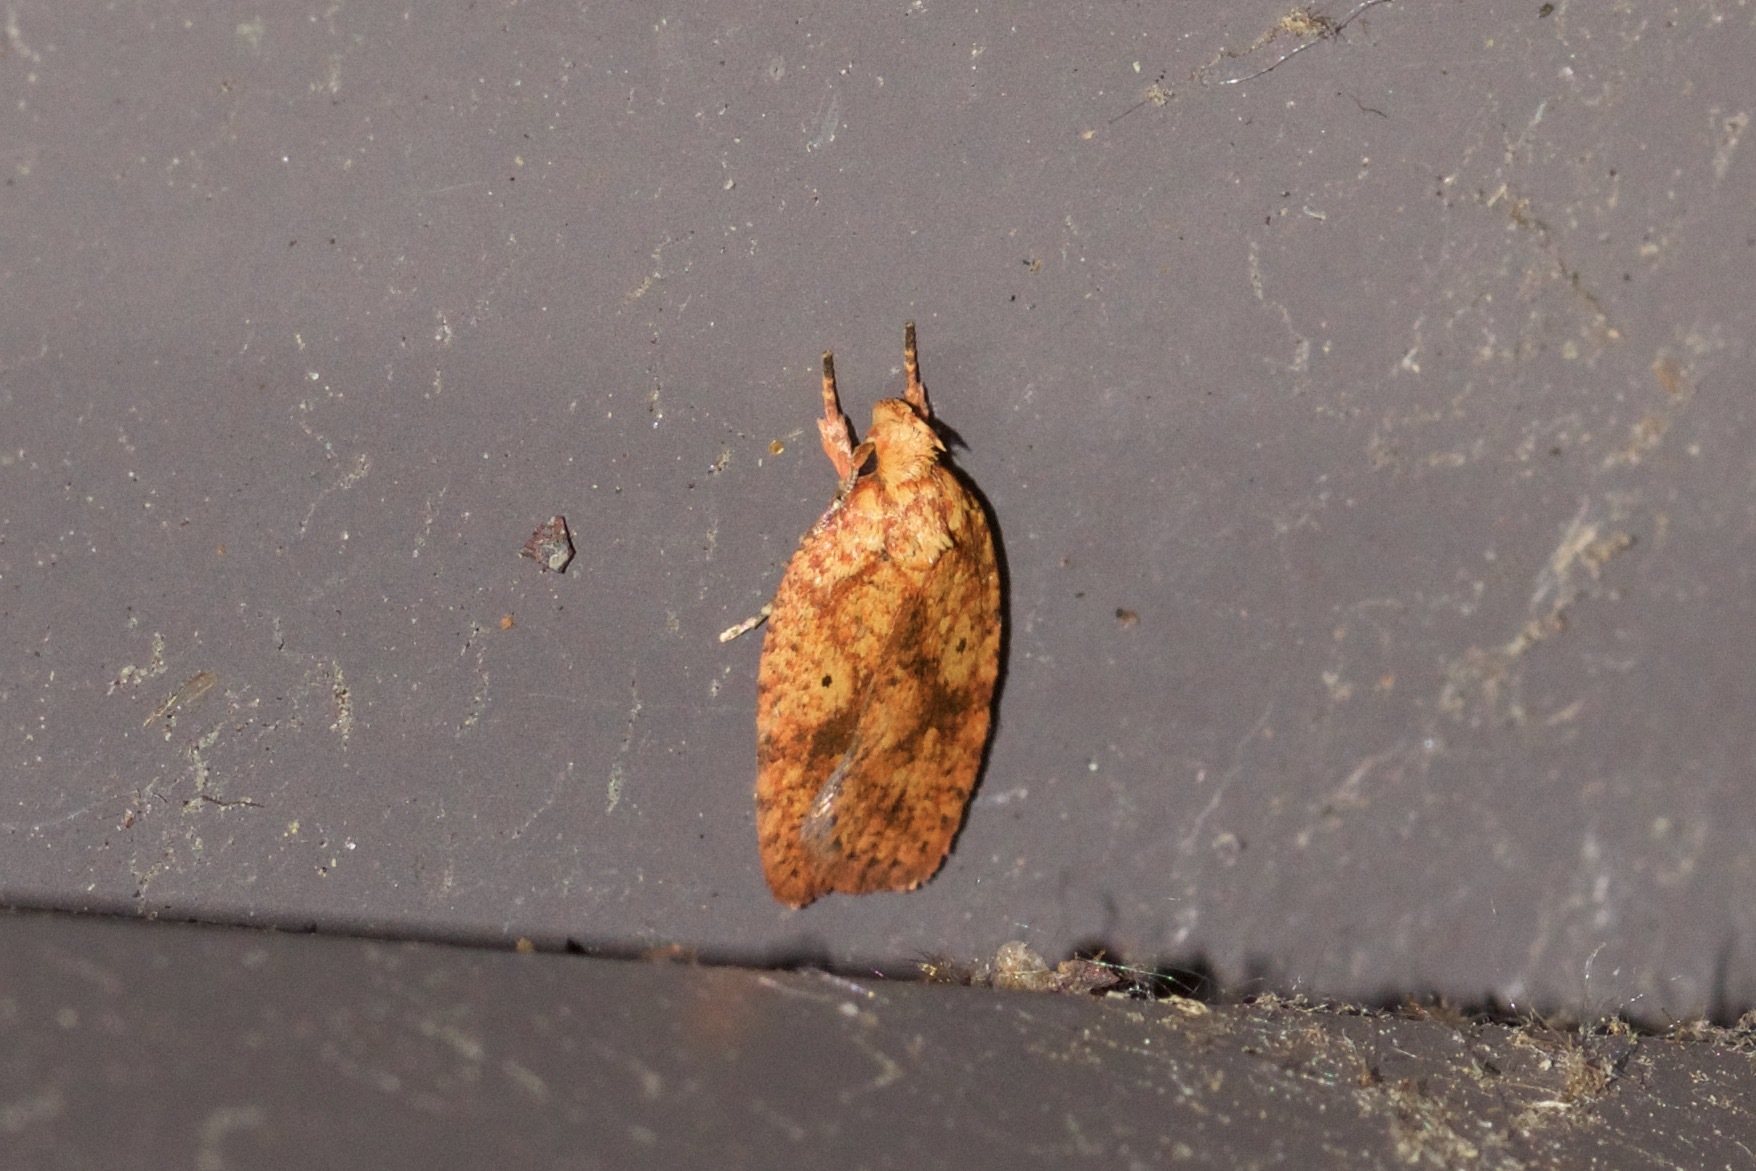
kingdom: Animalia
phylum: Arthropoda
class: Insecta
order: Lepidoptera
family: Depressariidae
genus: Agonopterix
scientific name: Agonopterix robiniella
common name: Four-dotted agonopterix moth
